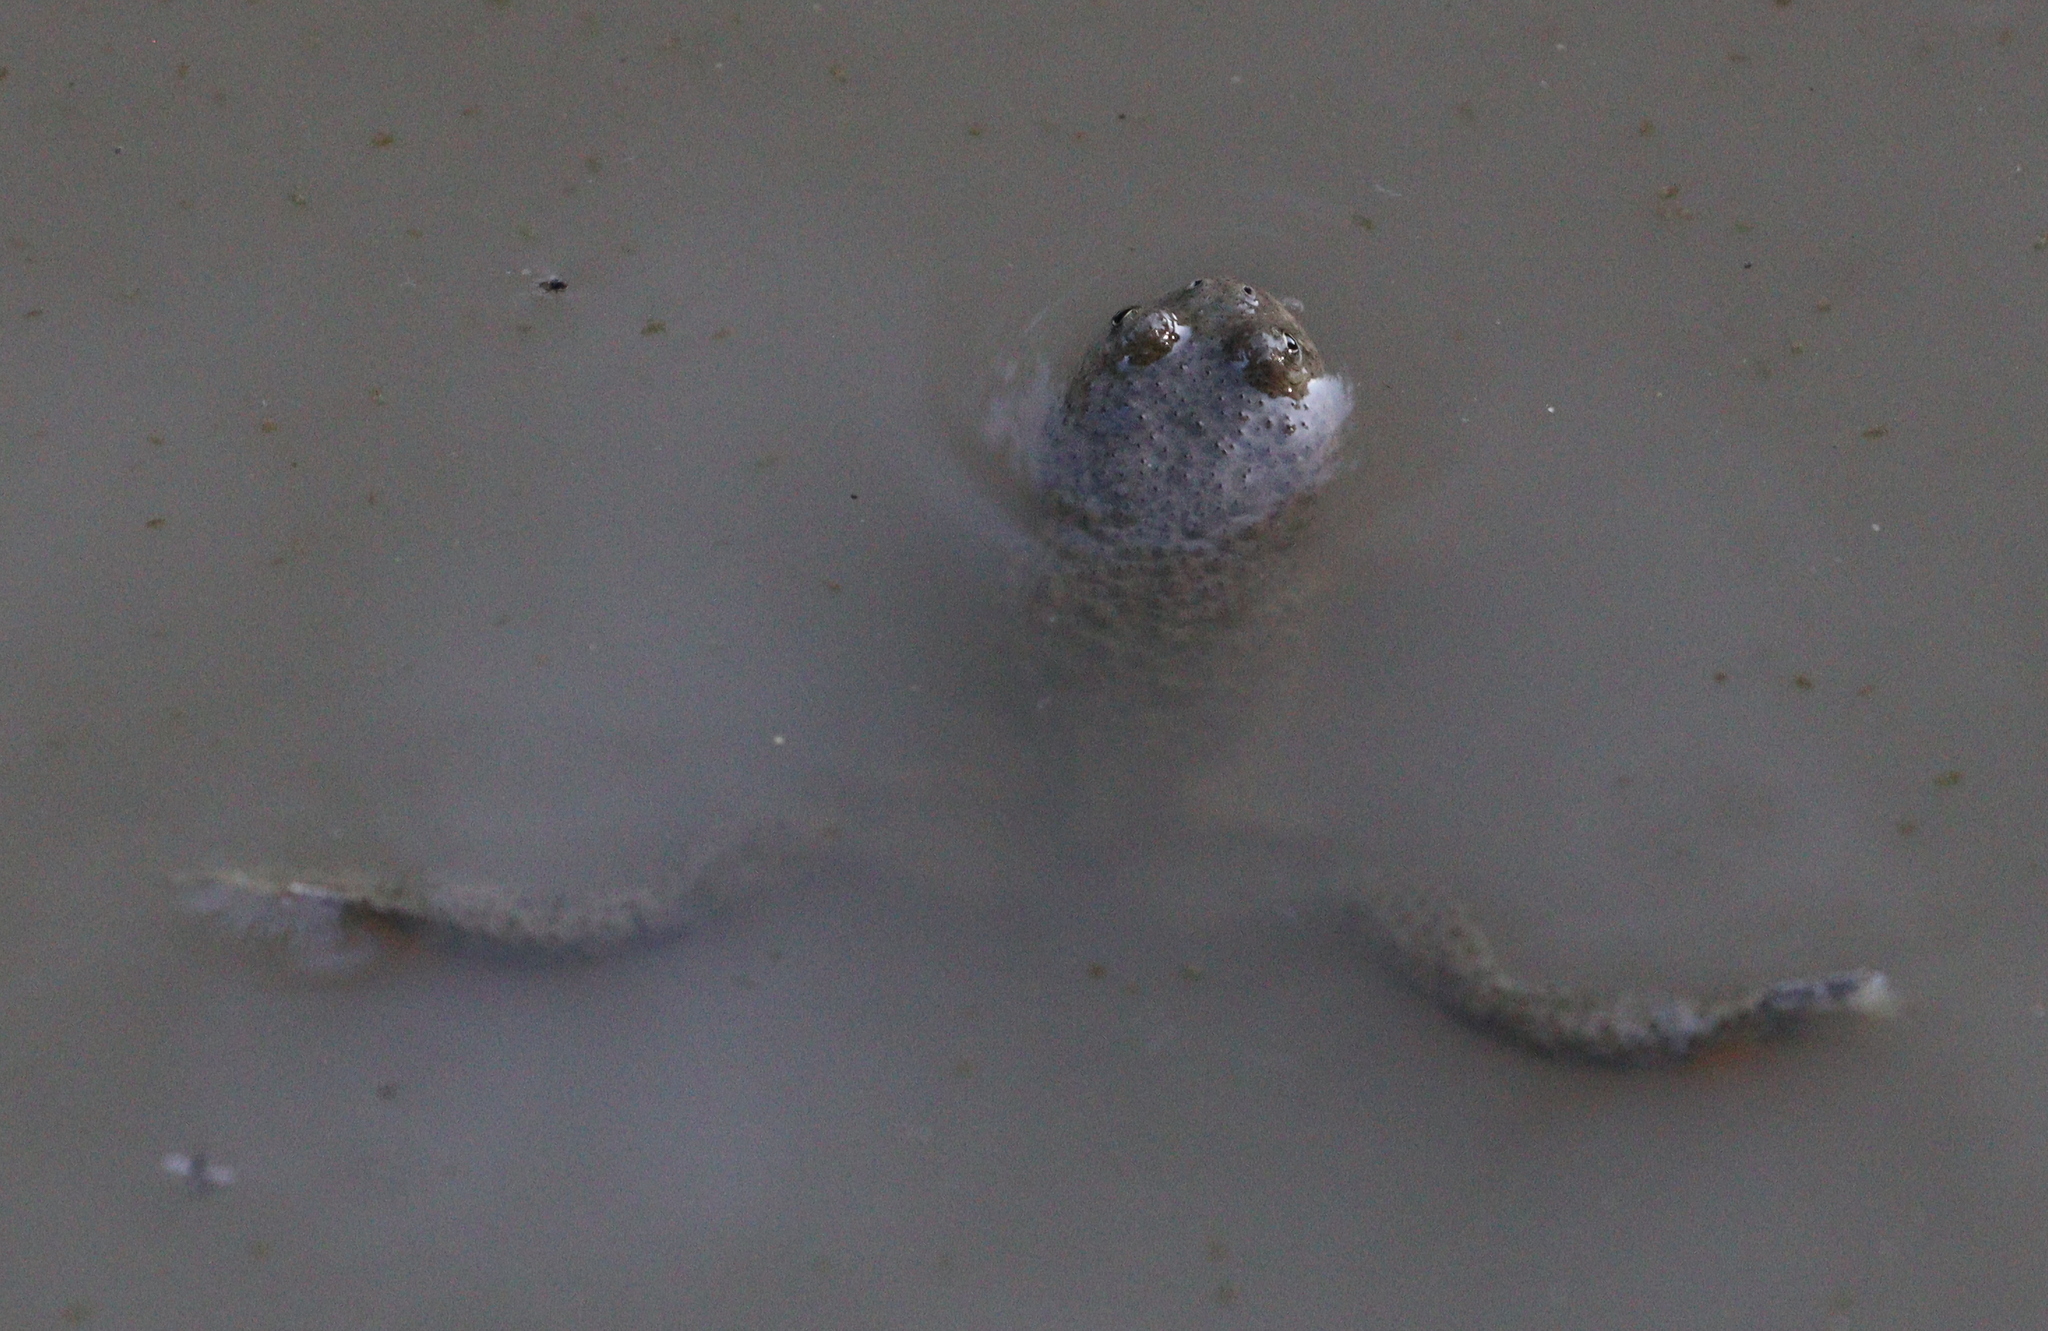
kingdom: Animalia
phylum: Chordata
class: Amphibia
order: Anura
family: Bombinatoridae
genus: Bombina
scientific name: Bombina variegata
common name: Yellow-bellied toad
